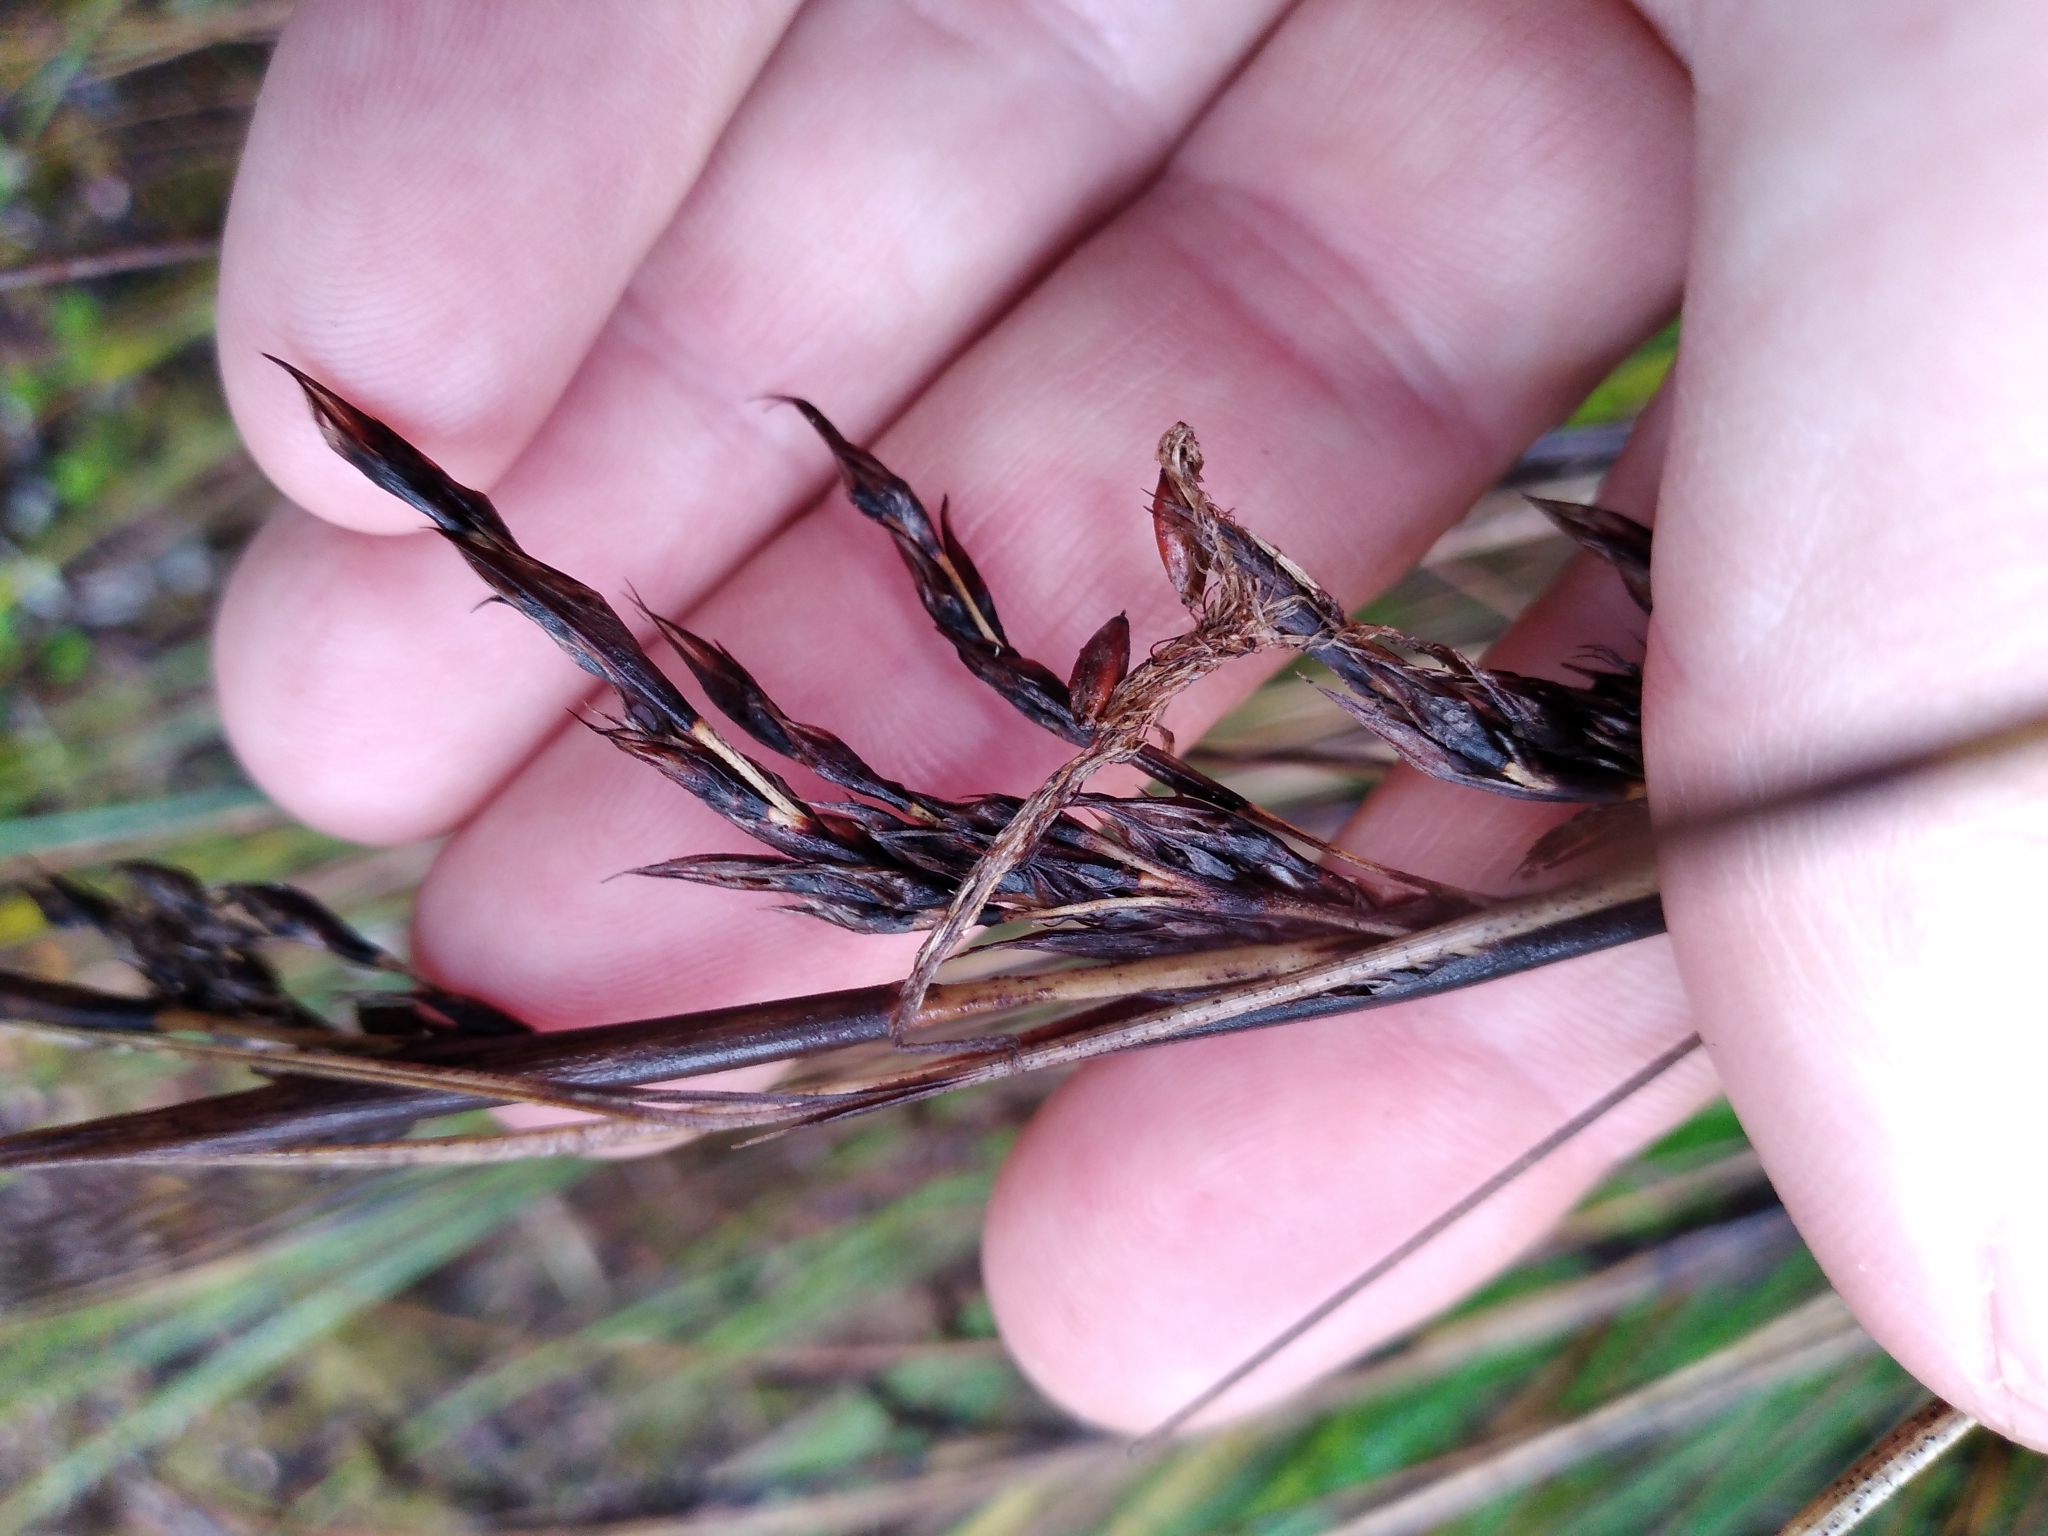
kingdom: Plantae
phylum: Tracheophyta
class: Liliopsida
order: Poales
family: Cyperaceae
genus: Gahnia
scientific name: Gahnia procera
